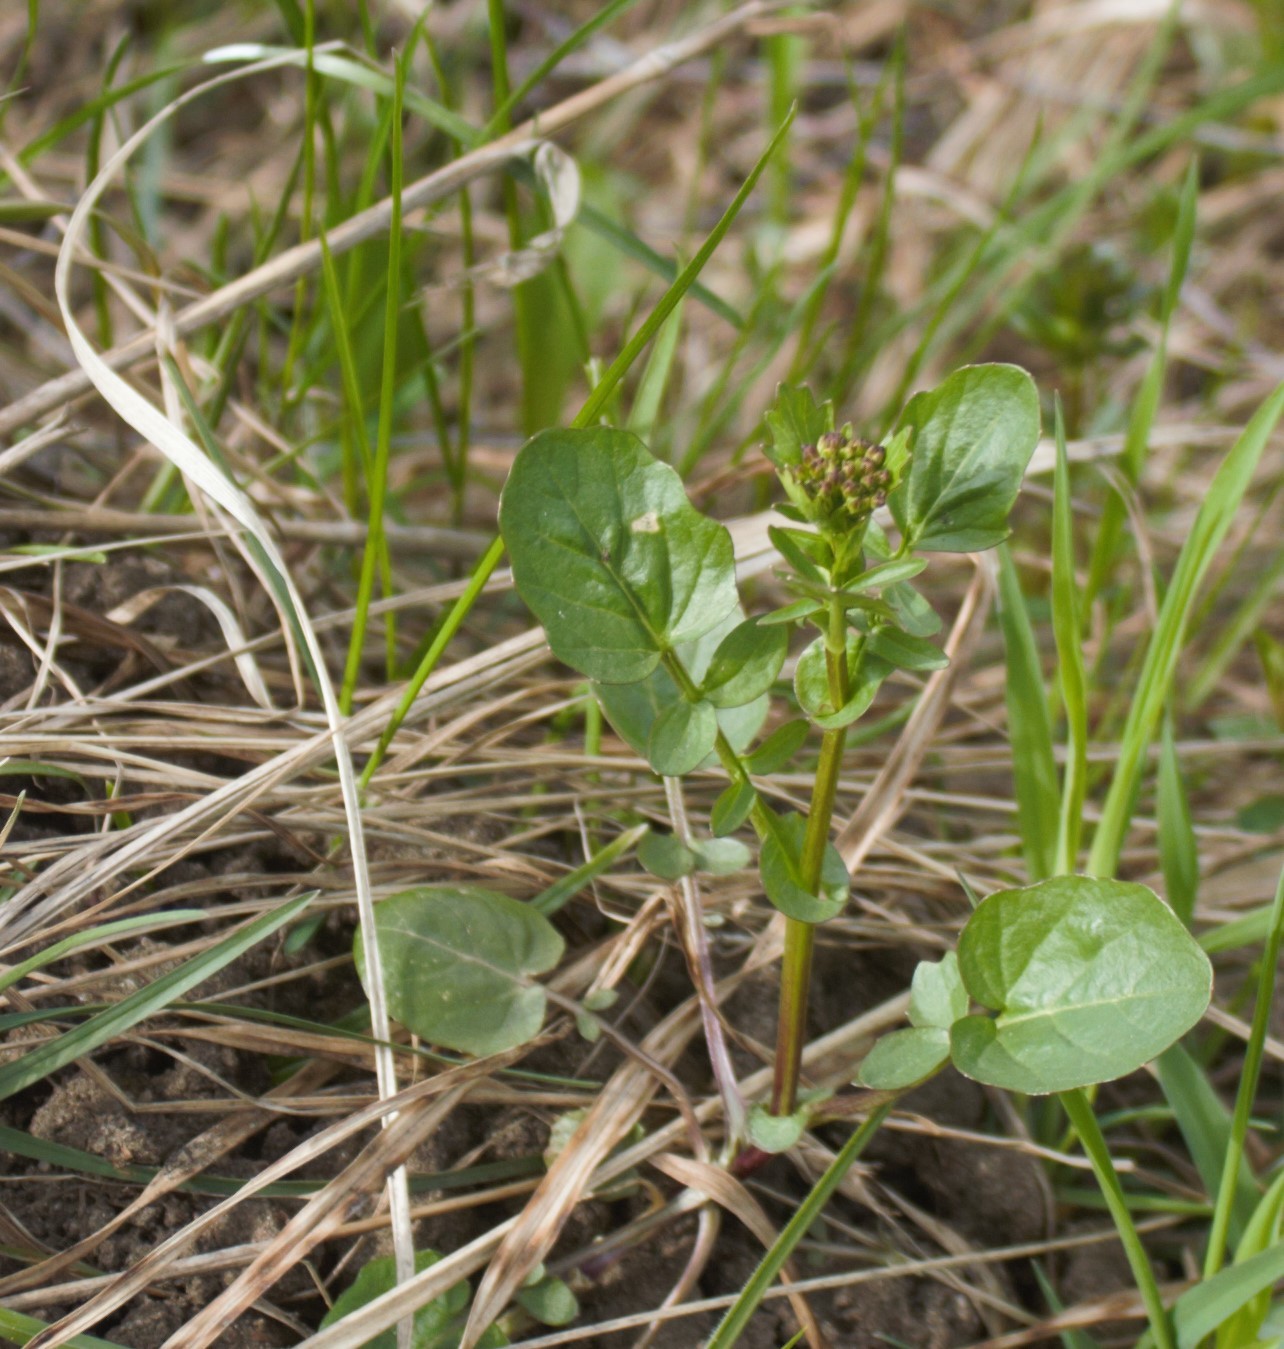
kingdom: Plantae
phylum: Tracheophyta
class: Magnoliopsida
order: Brassicales
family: Brassicaceae
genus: Barbarea
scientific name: Barbarea vulgaris
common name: Cressy-greens
